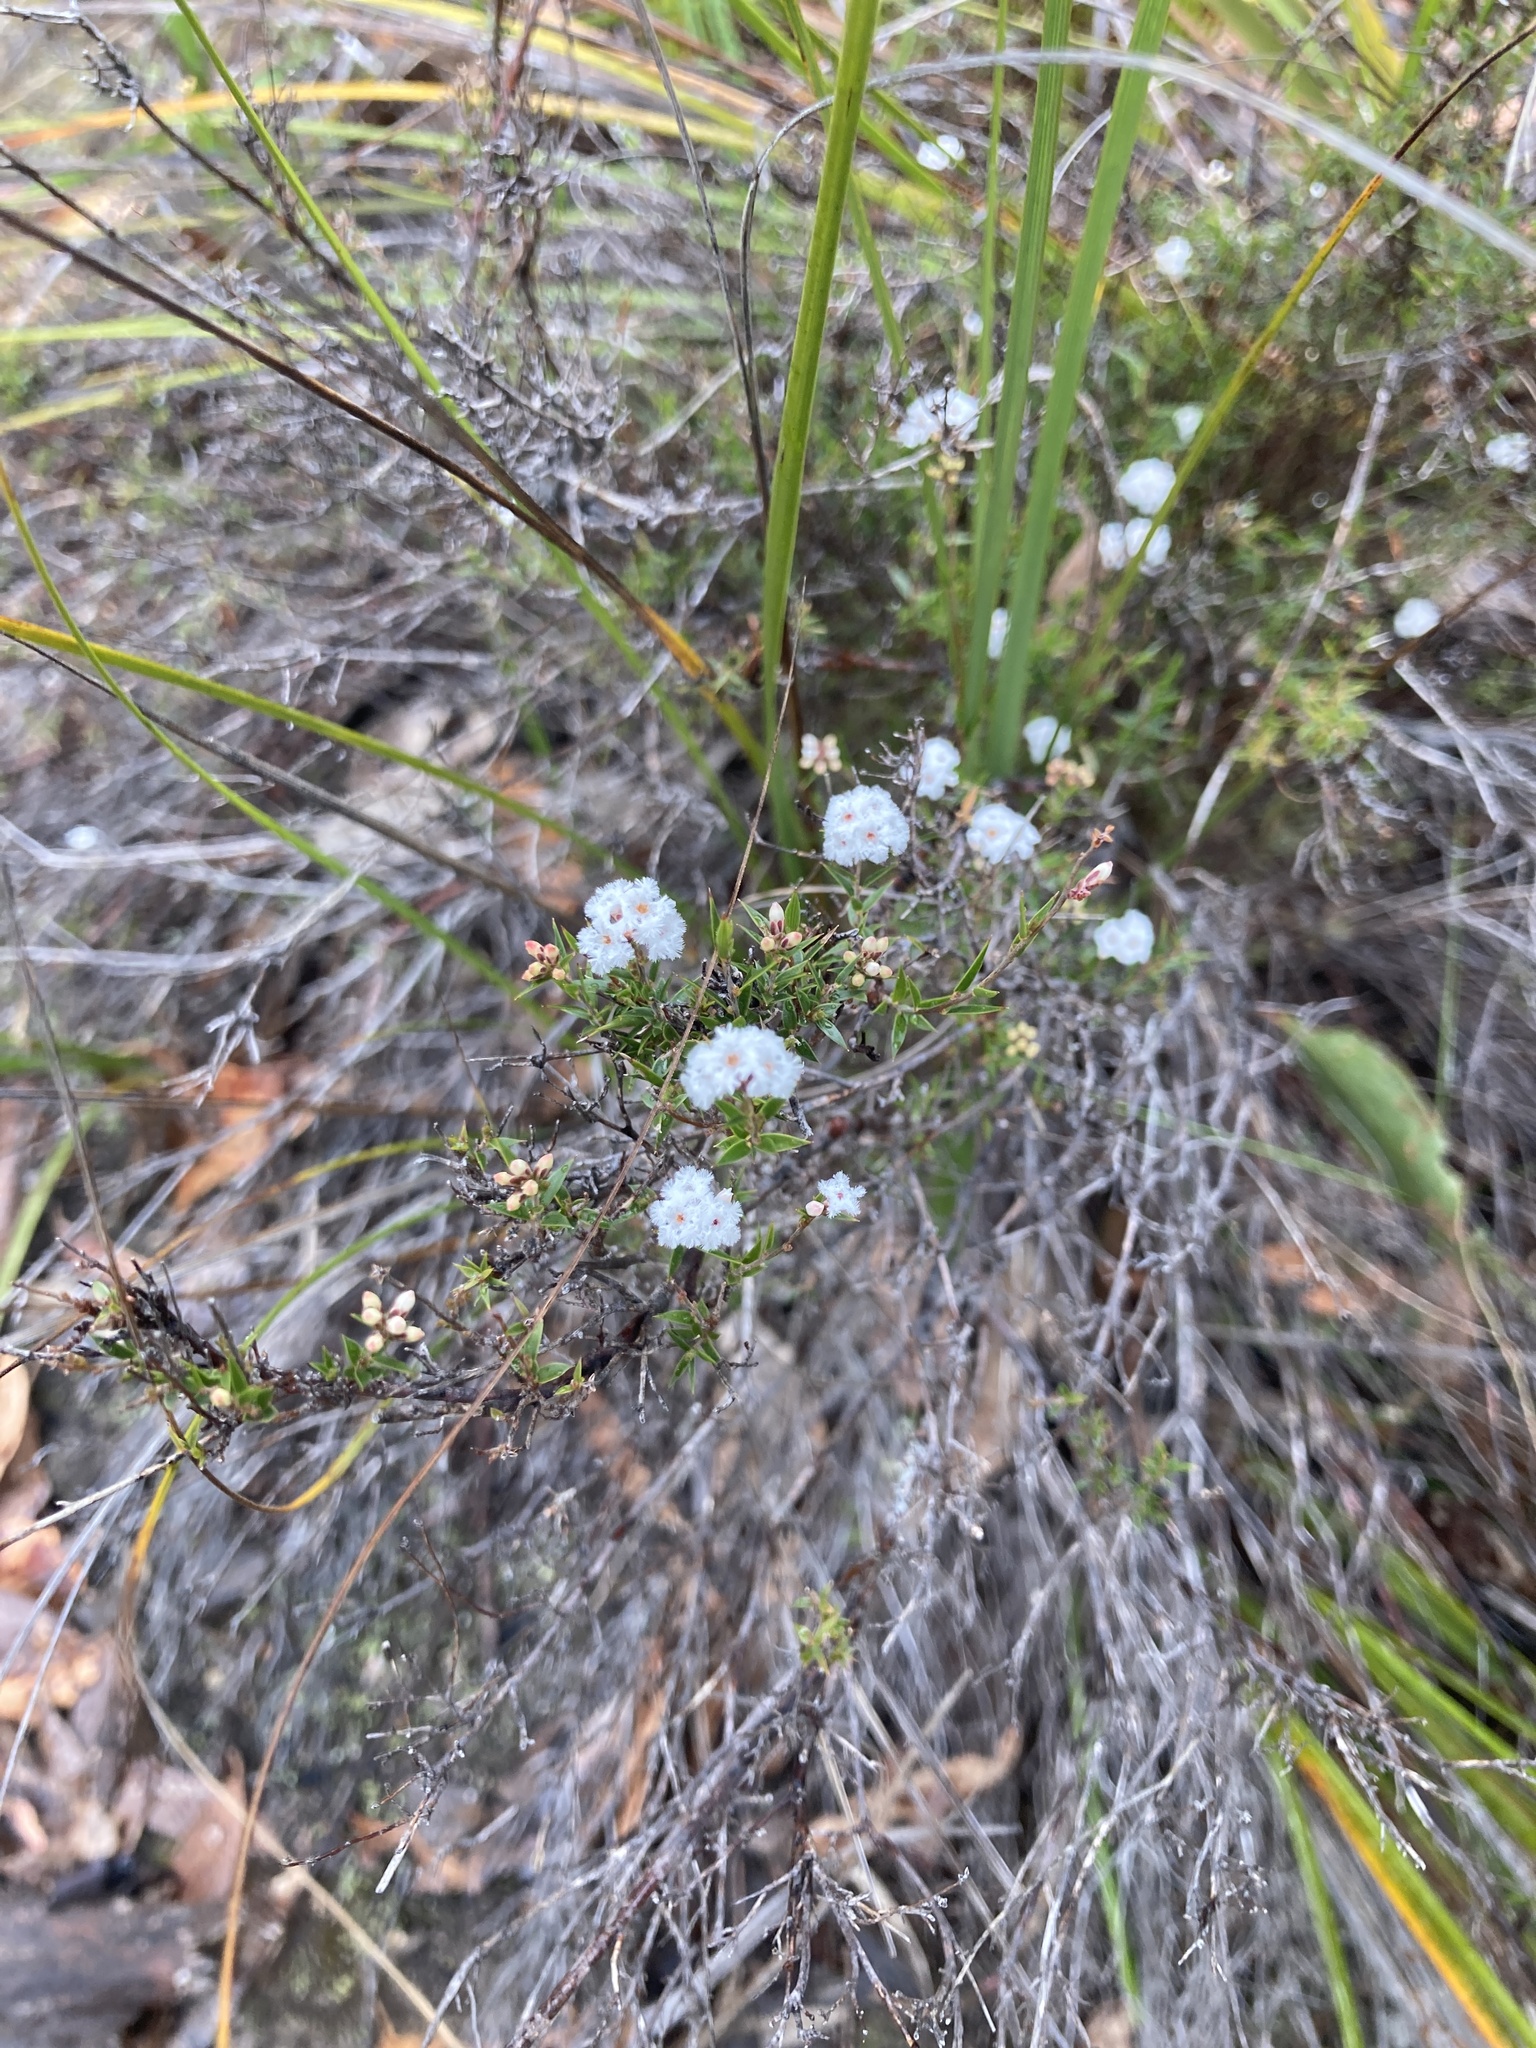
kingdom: Plantae
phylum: Tracheophyta
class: Magnoliopsida
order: Ericales
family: Ericaceae
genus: Leucopogon
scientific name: Leucopogon virgatus
